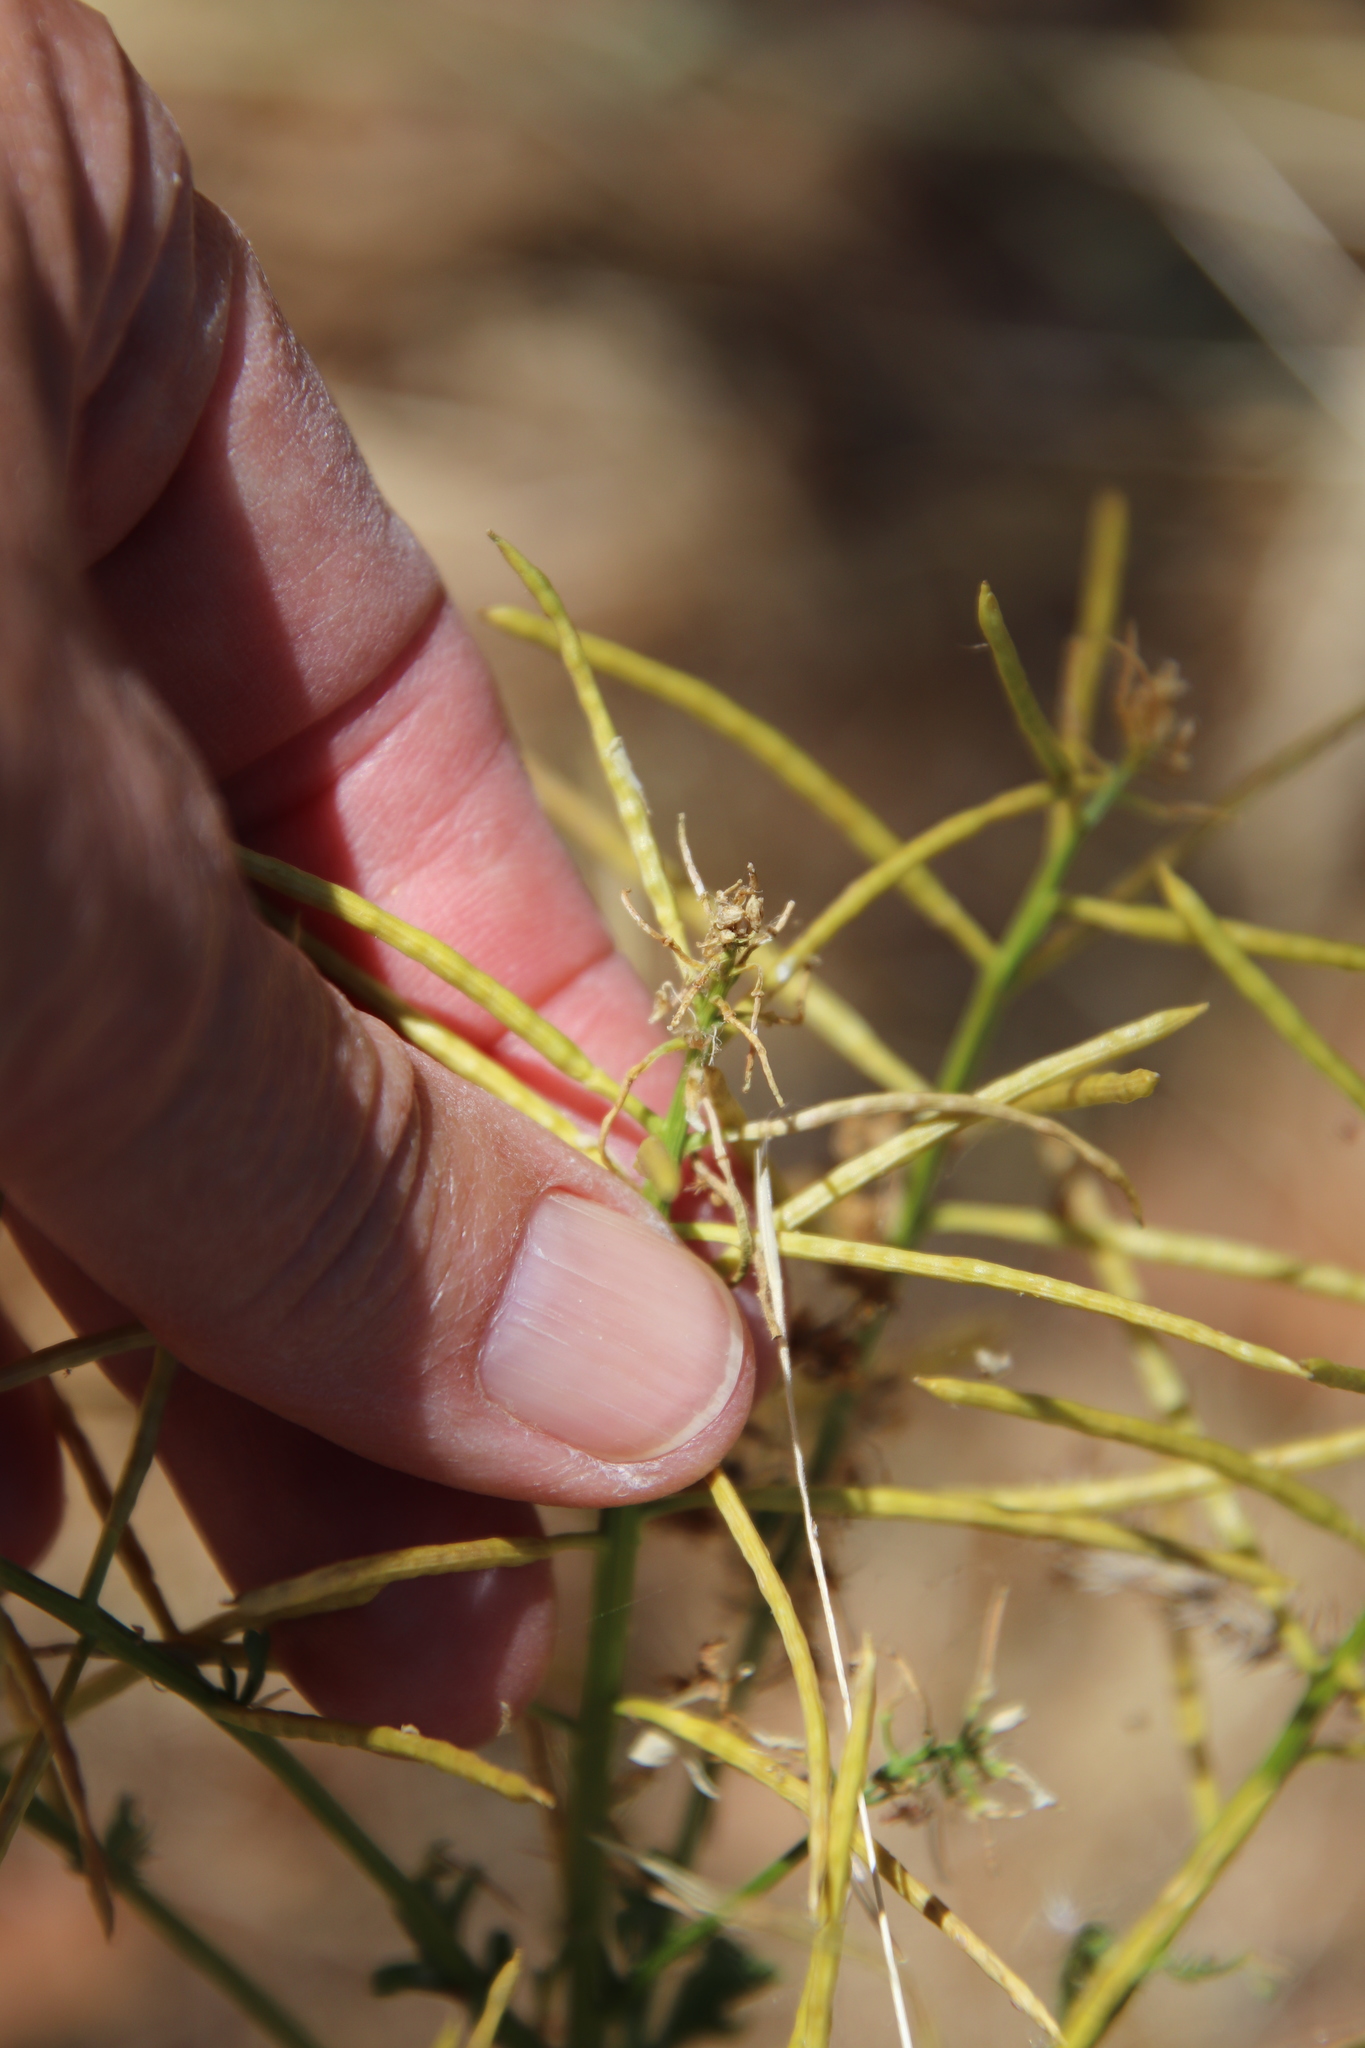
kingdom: Plantae
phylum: Tracheophyta
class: Magnoliopsida
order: Brassicales
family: Brassicaceae
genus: Barbarea
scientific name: Barbarea orthoceras
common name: American wintercress
